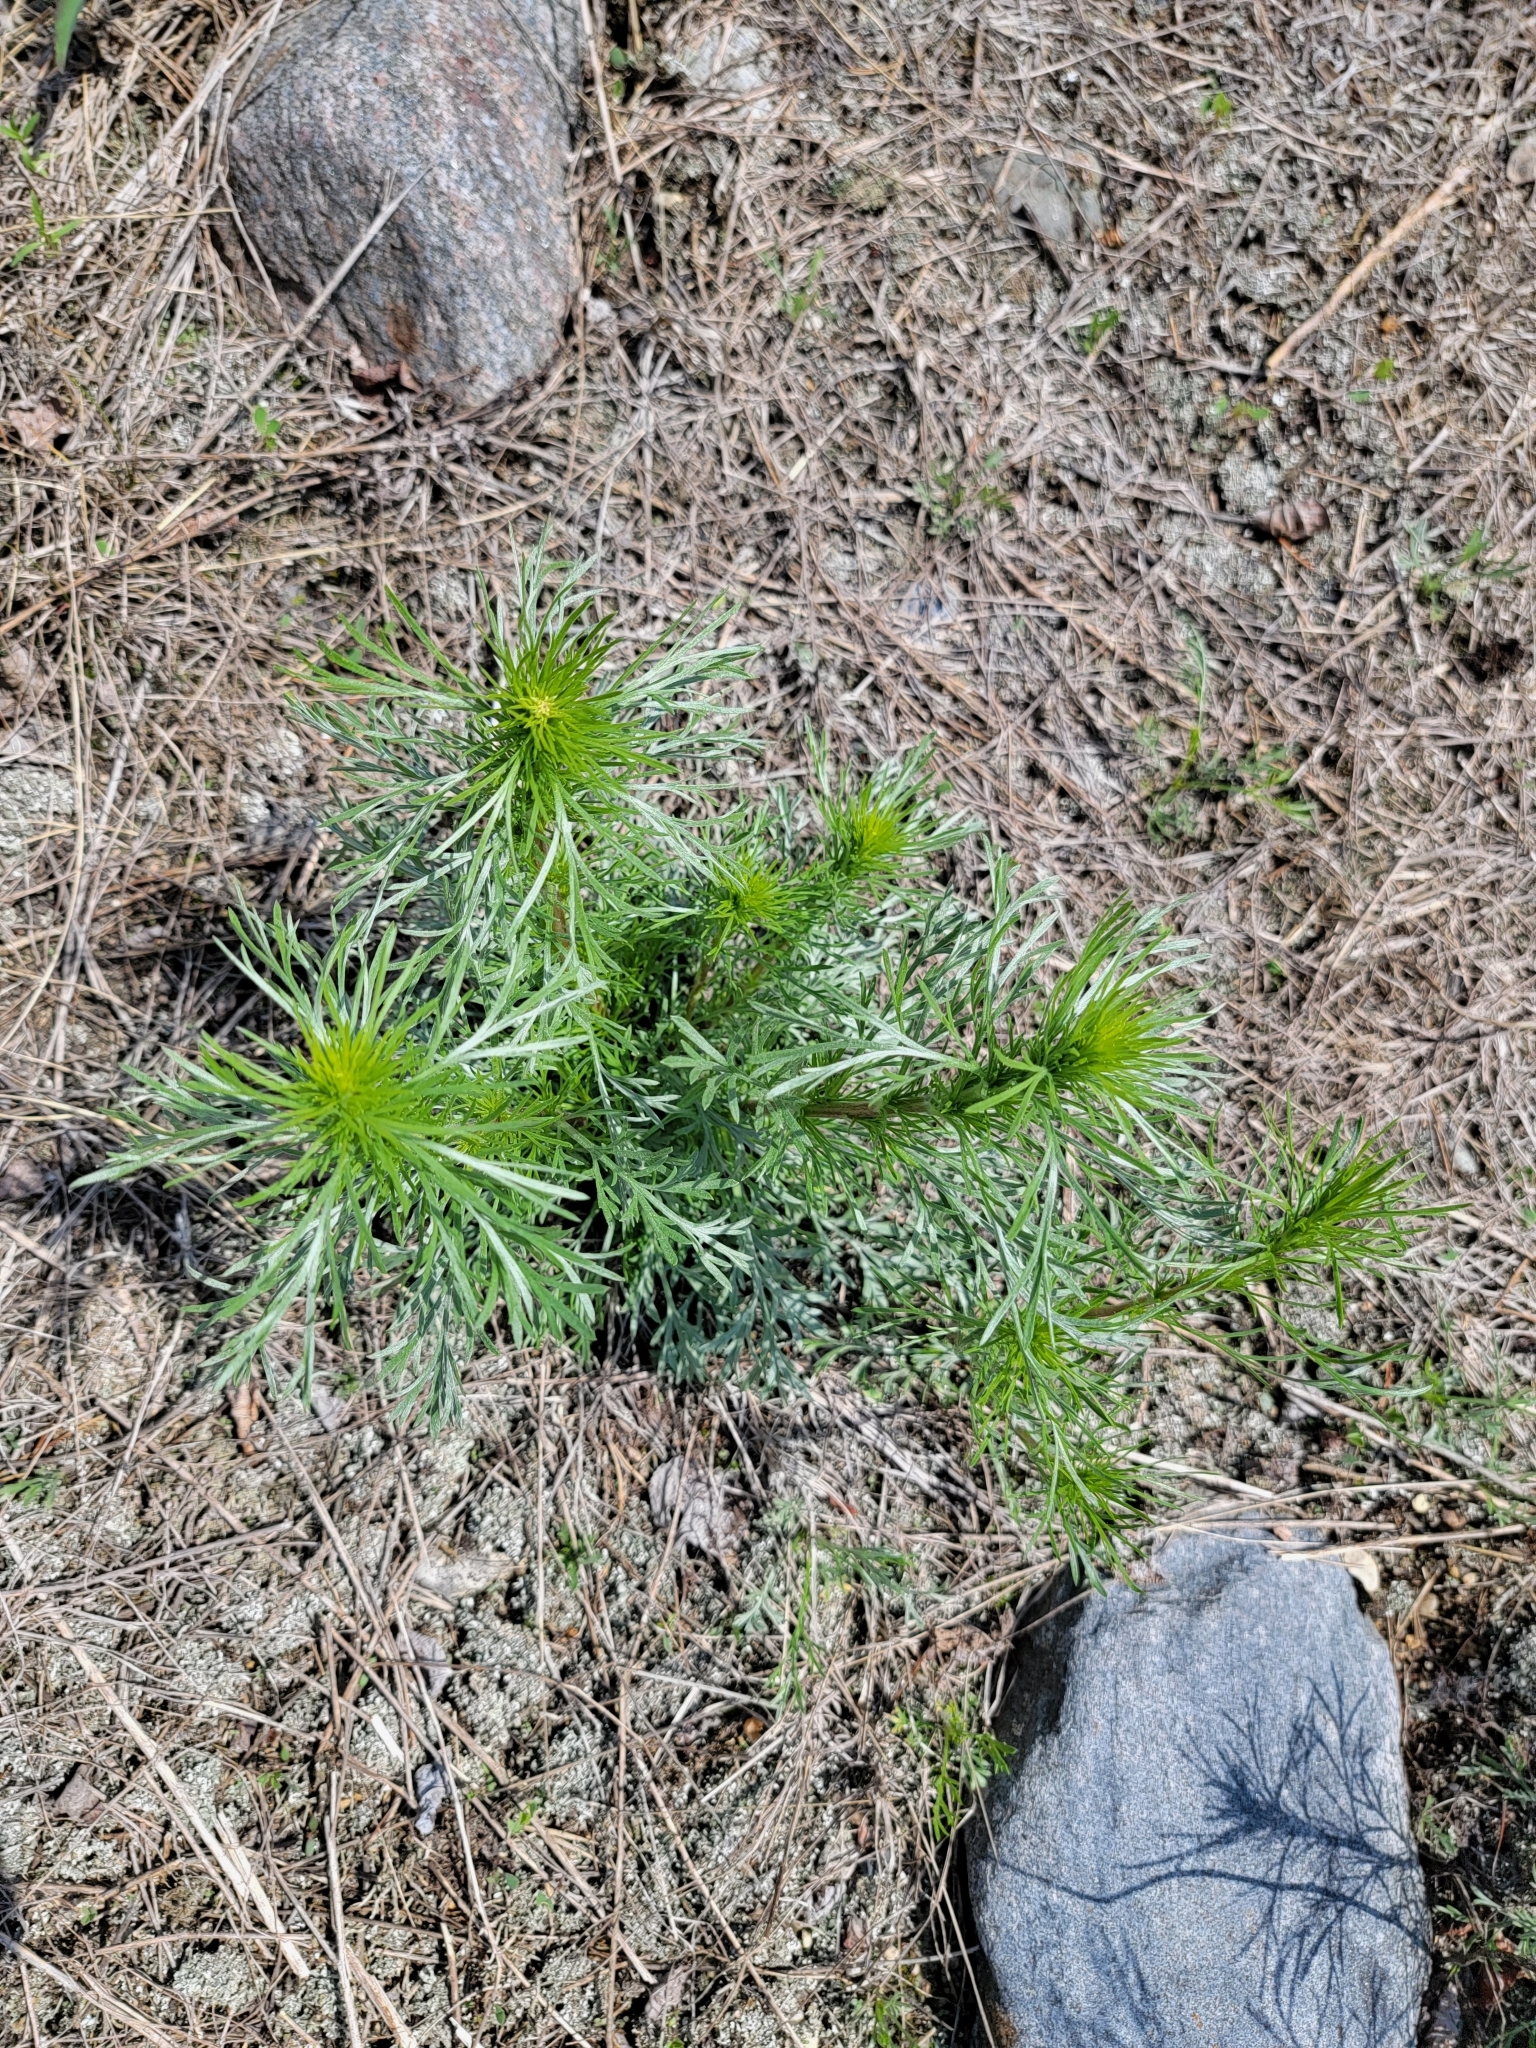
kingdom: Plantae
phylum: Tracheophyta
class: Magnoliopsida
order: Asterales
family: Asteraceae
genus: Artemisia
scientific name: Artemisia campestris
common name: Field wormwood
